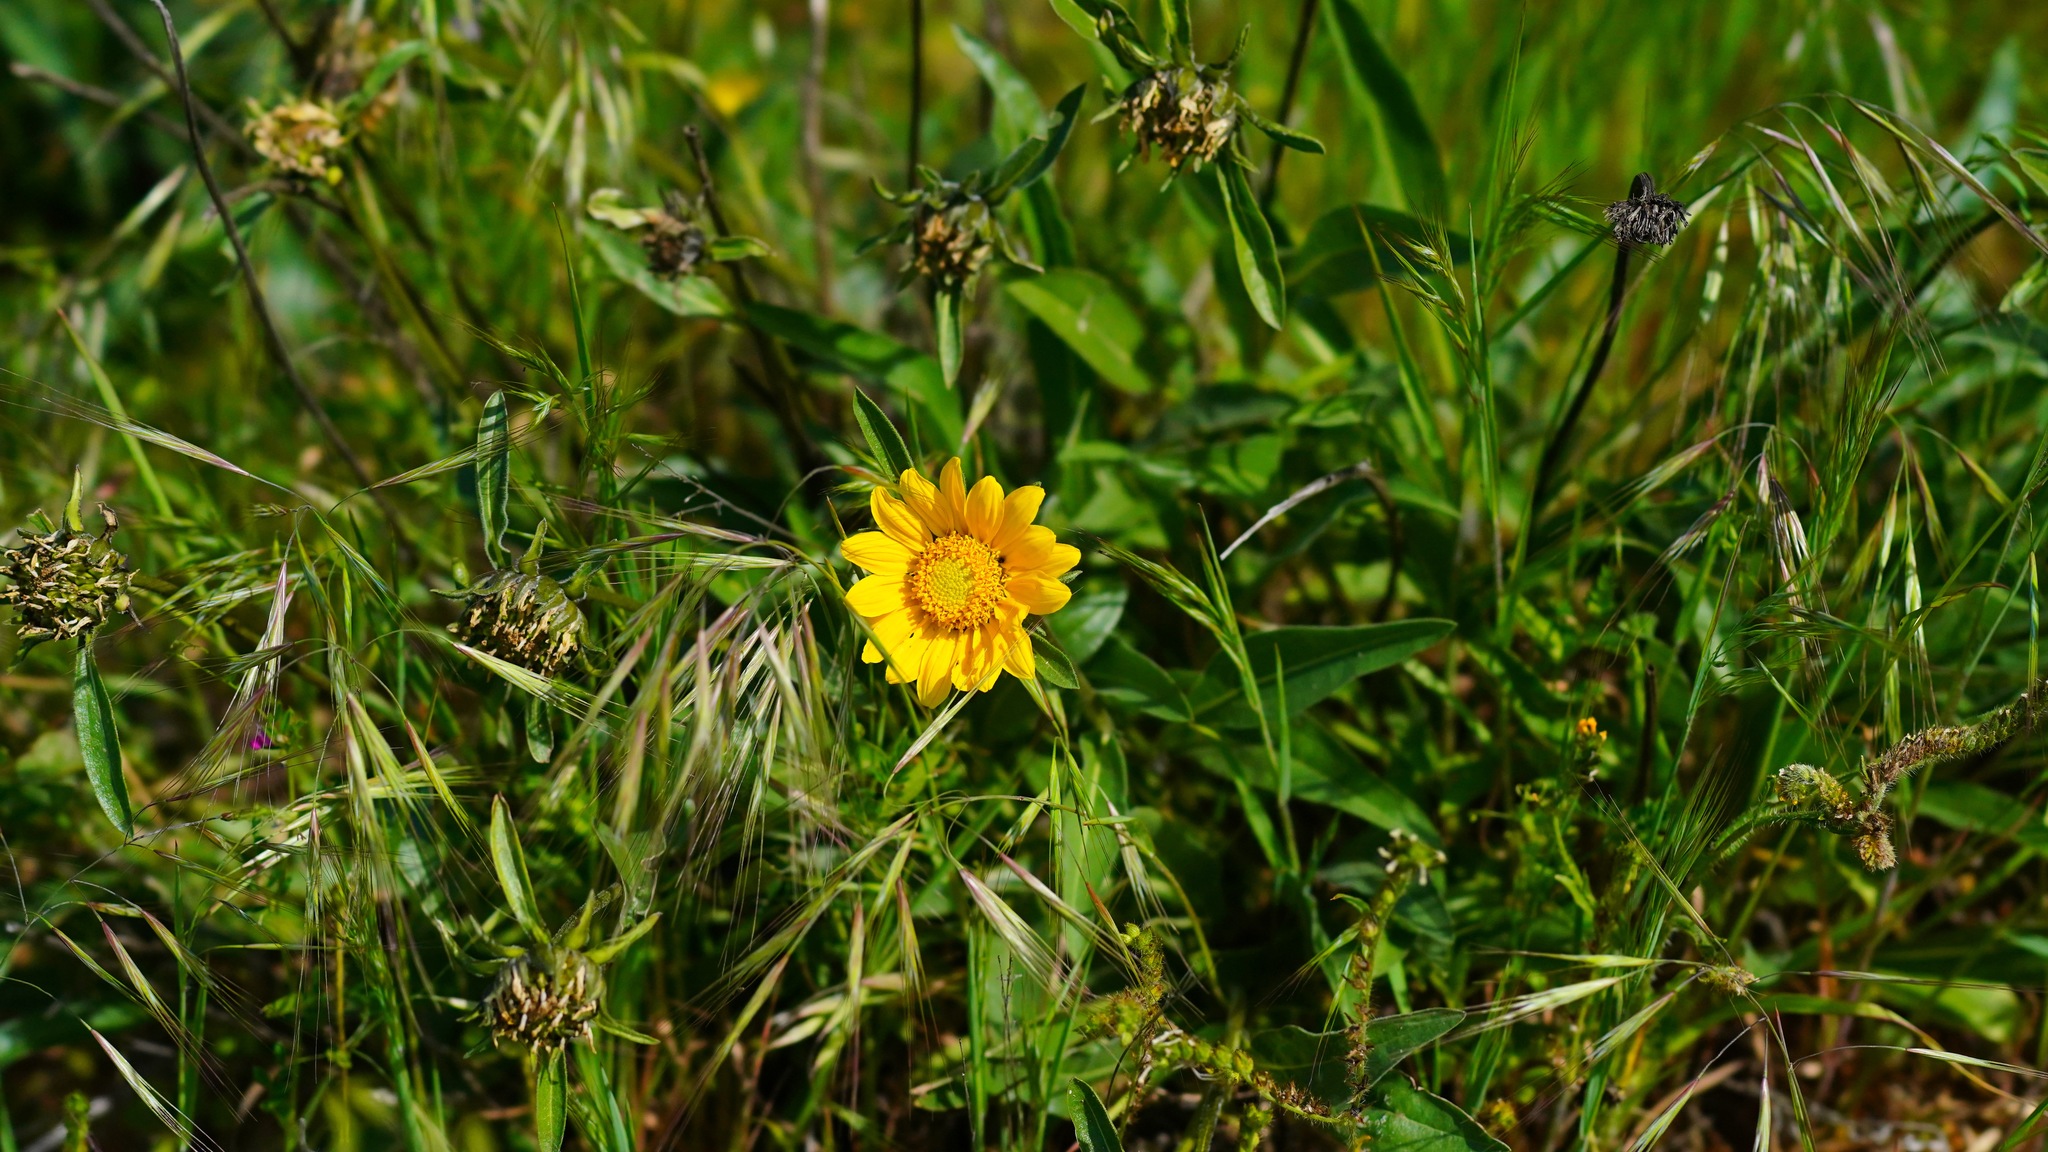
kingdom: Plantae
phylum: Tracheophyta
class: Magnoliopsida
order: Asterales
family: Asteraceae
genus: Helianthella
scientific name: Helianthella castanea
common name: Diablo helianthella
